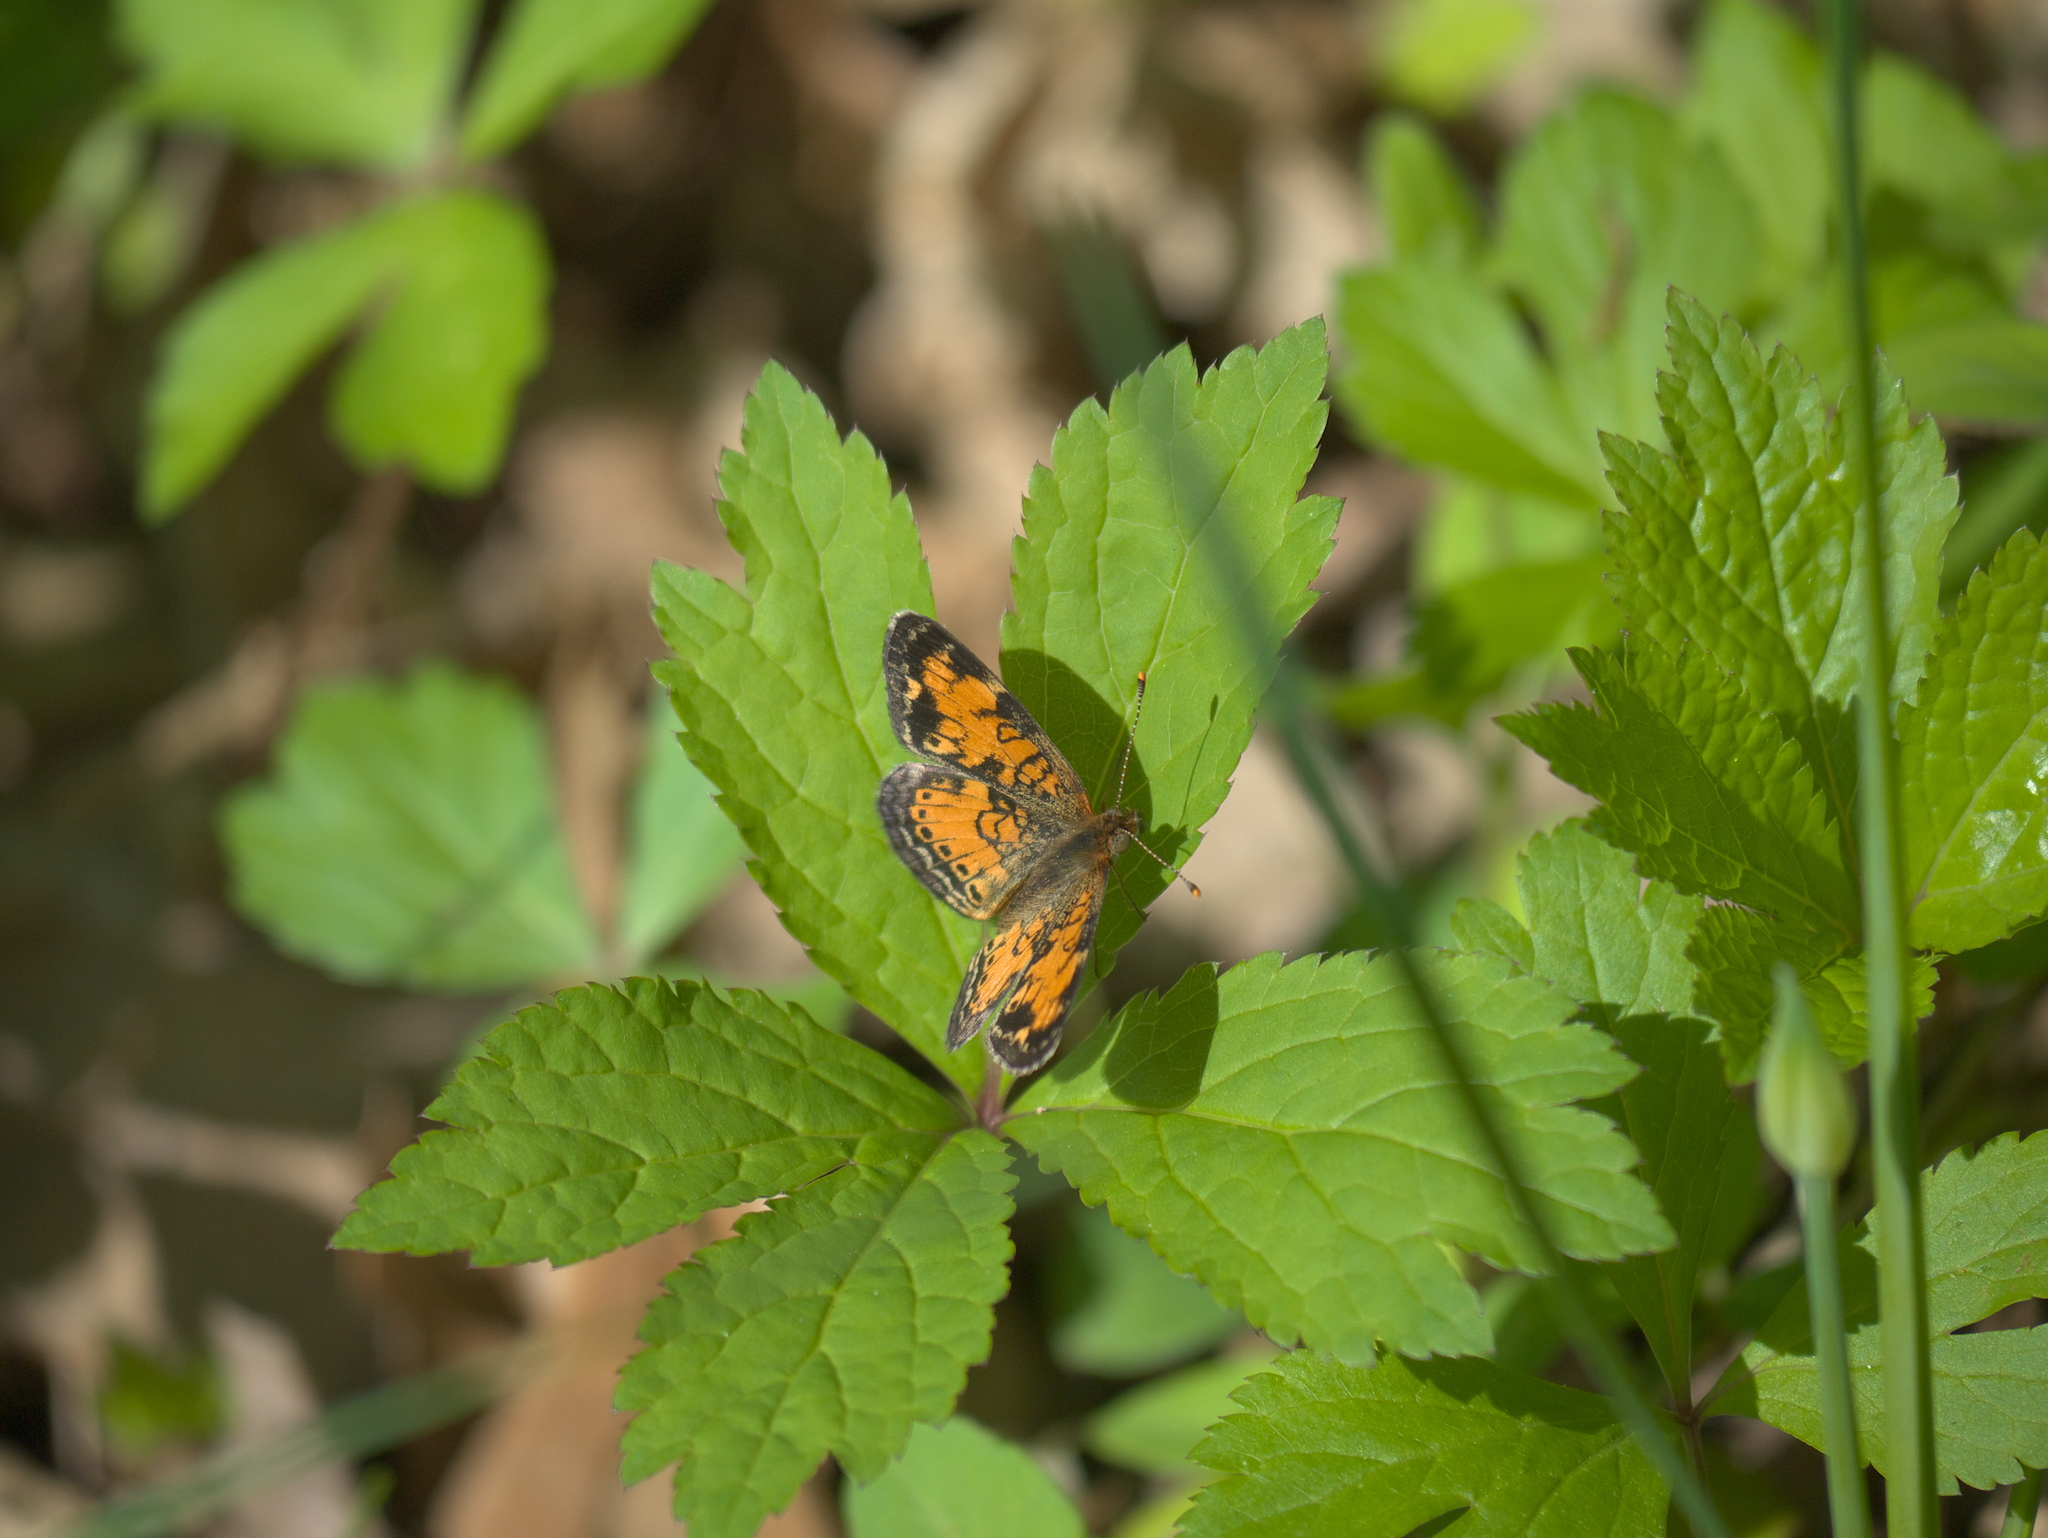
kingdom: Animalia
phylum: Arthropoda
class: Insecta
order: Lepidoptera
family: Nymphalidae
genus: Phyciodes
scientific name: Phyciodes tharos
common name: Pearl crescent
